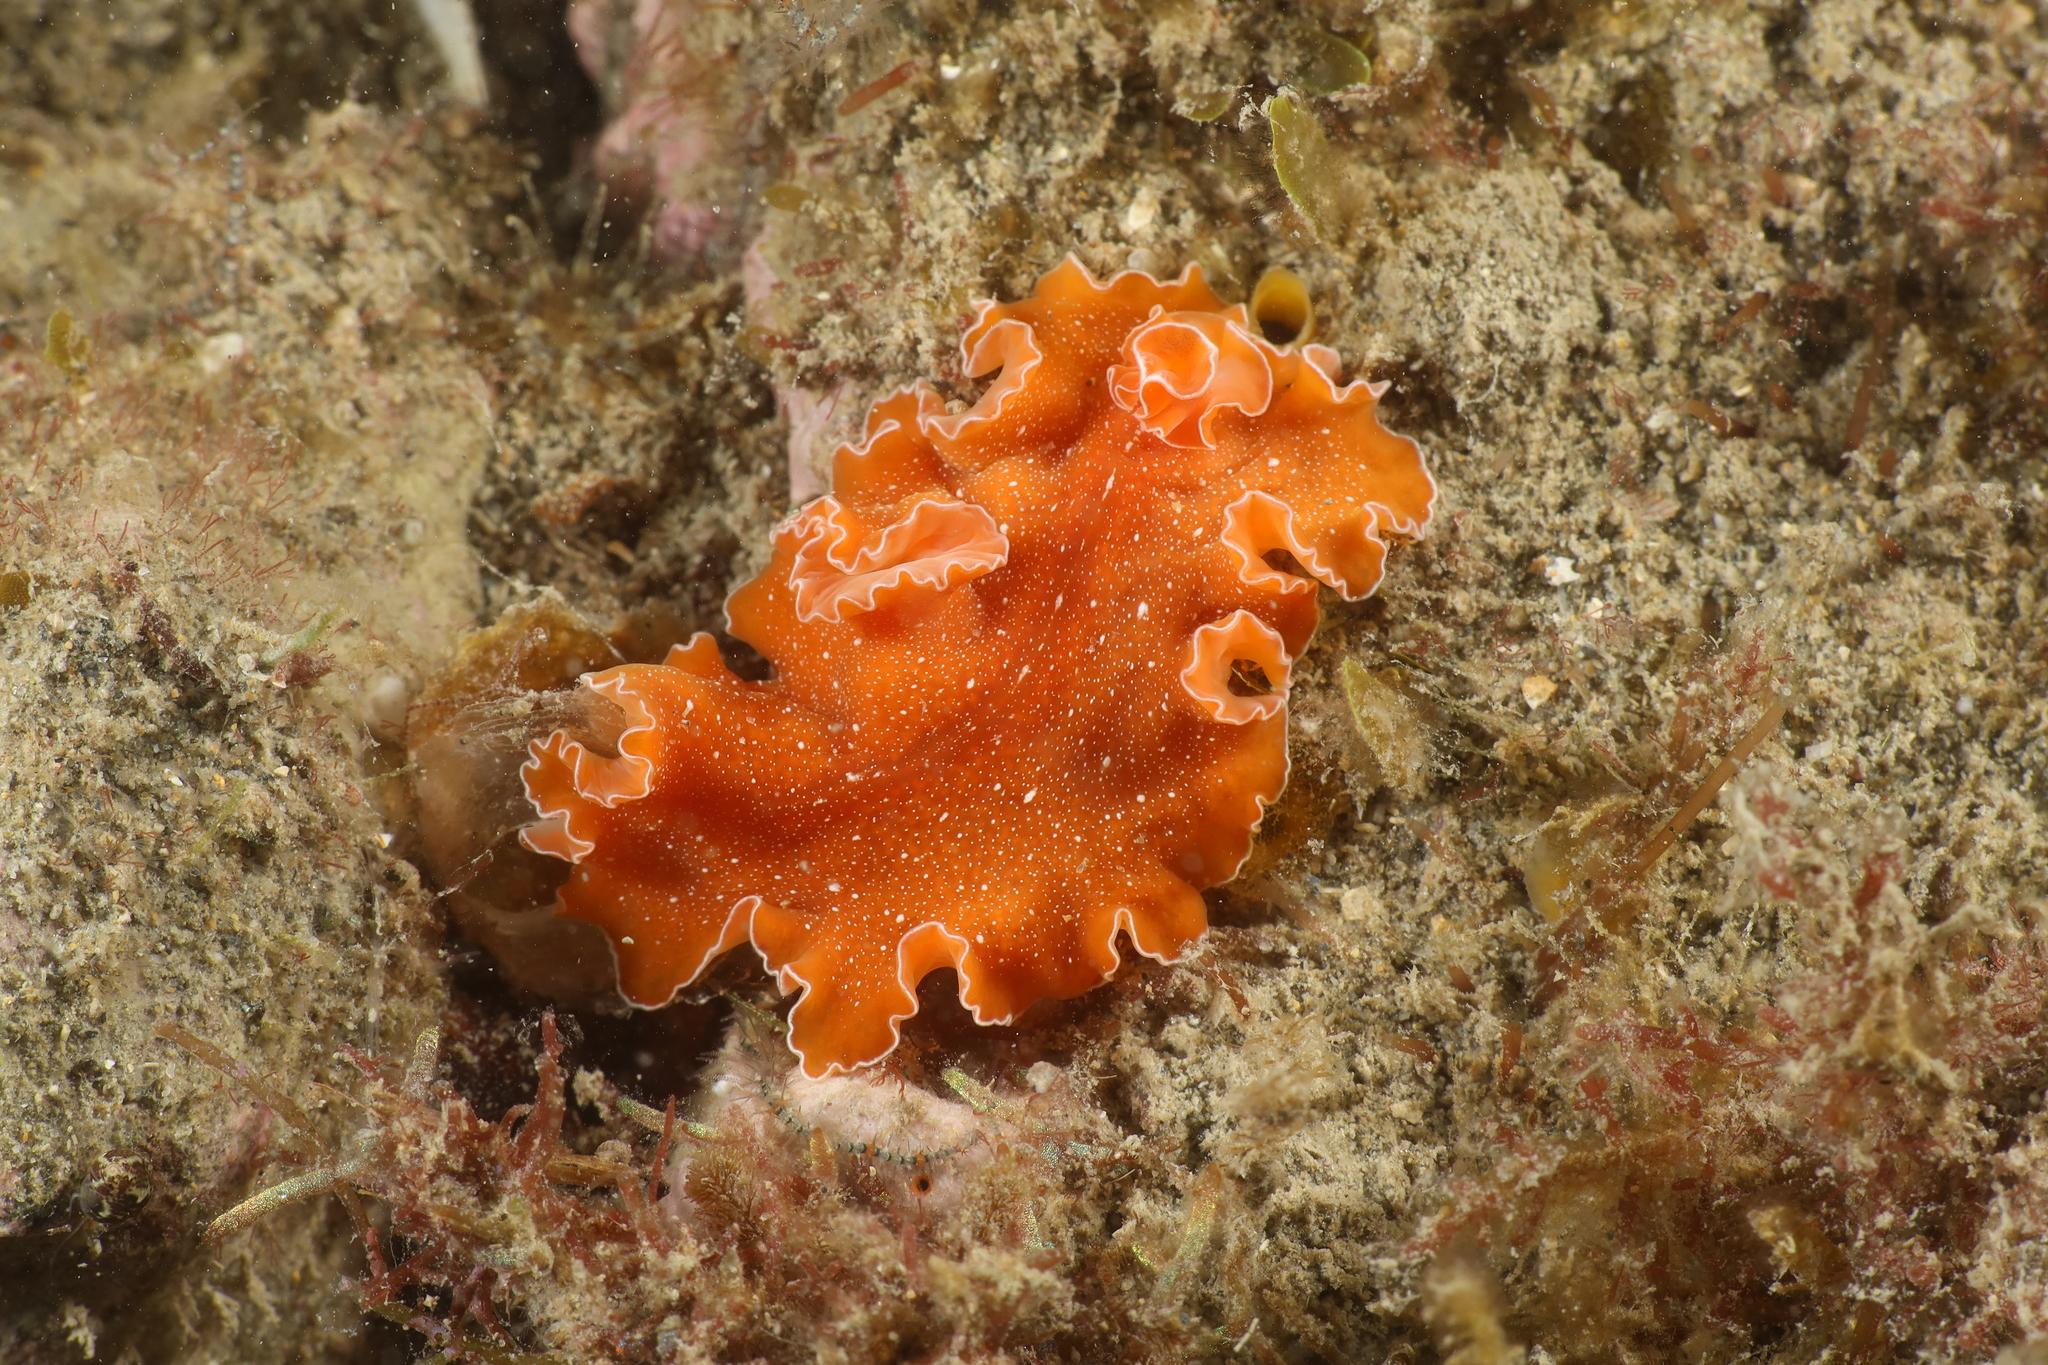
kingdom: Animalia
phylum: Platyhelminthes
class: Turbellaria
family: Pseudocerotidae
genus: Yungia
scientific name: Yungia aurantiaca
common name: Mediterranean orange polyclad worm
